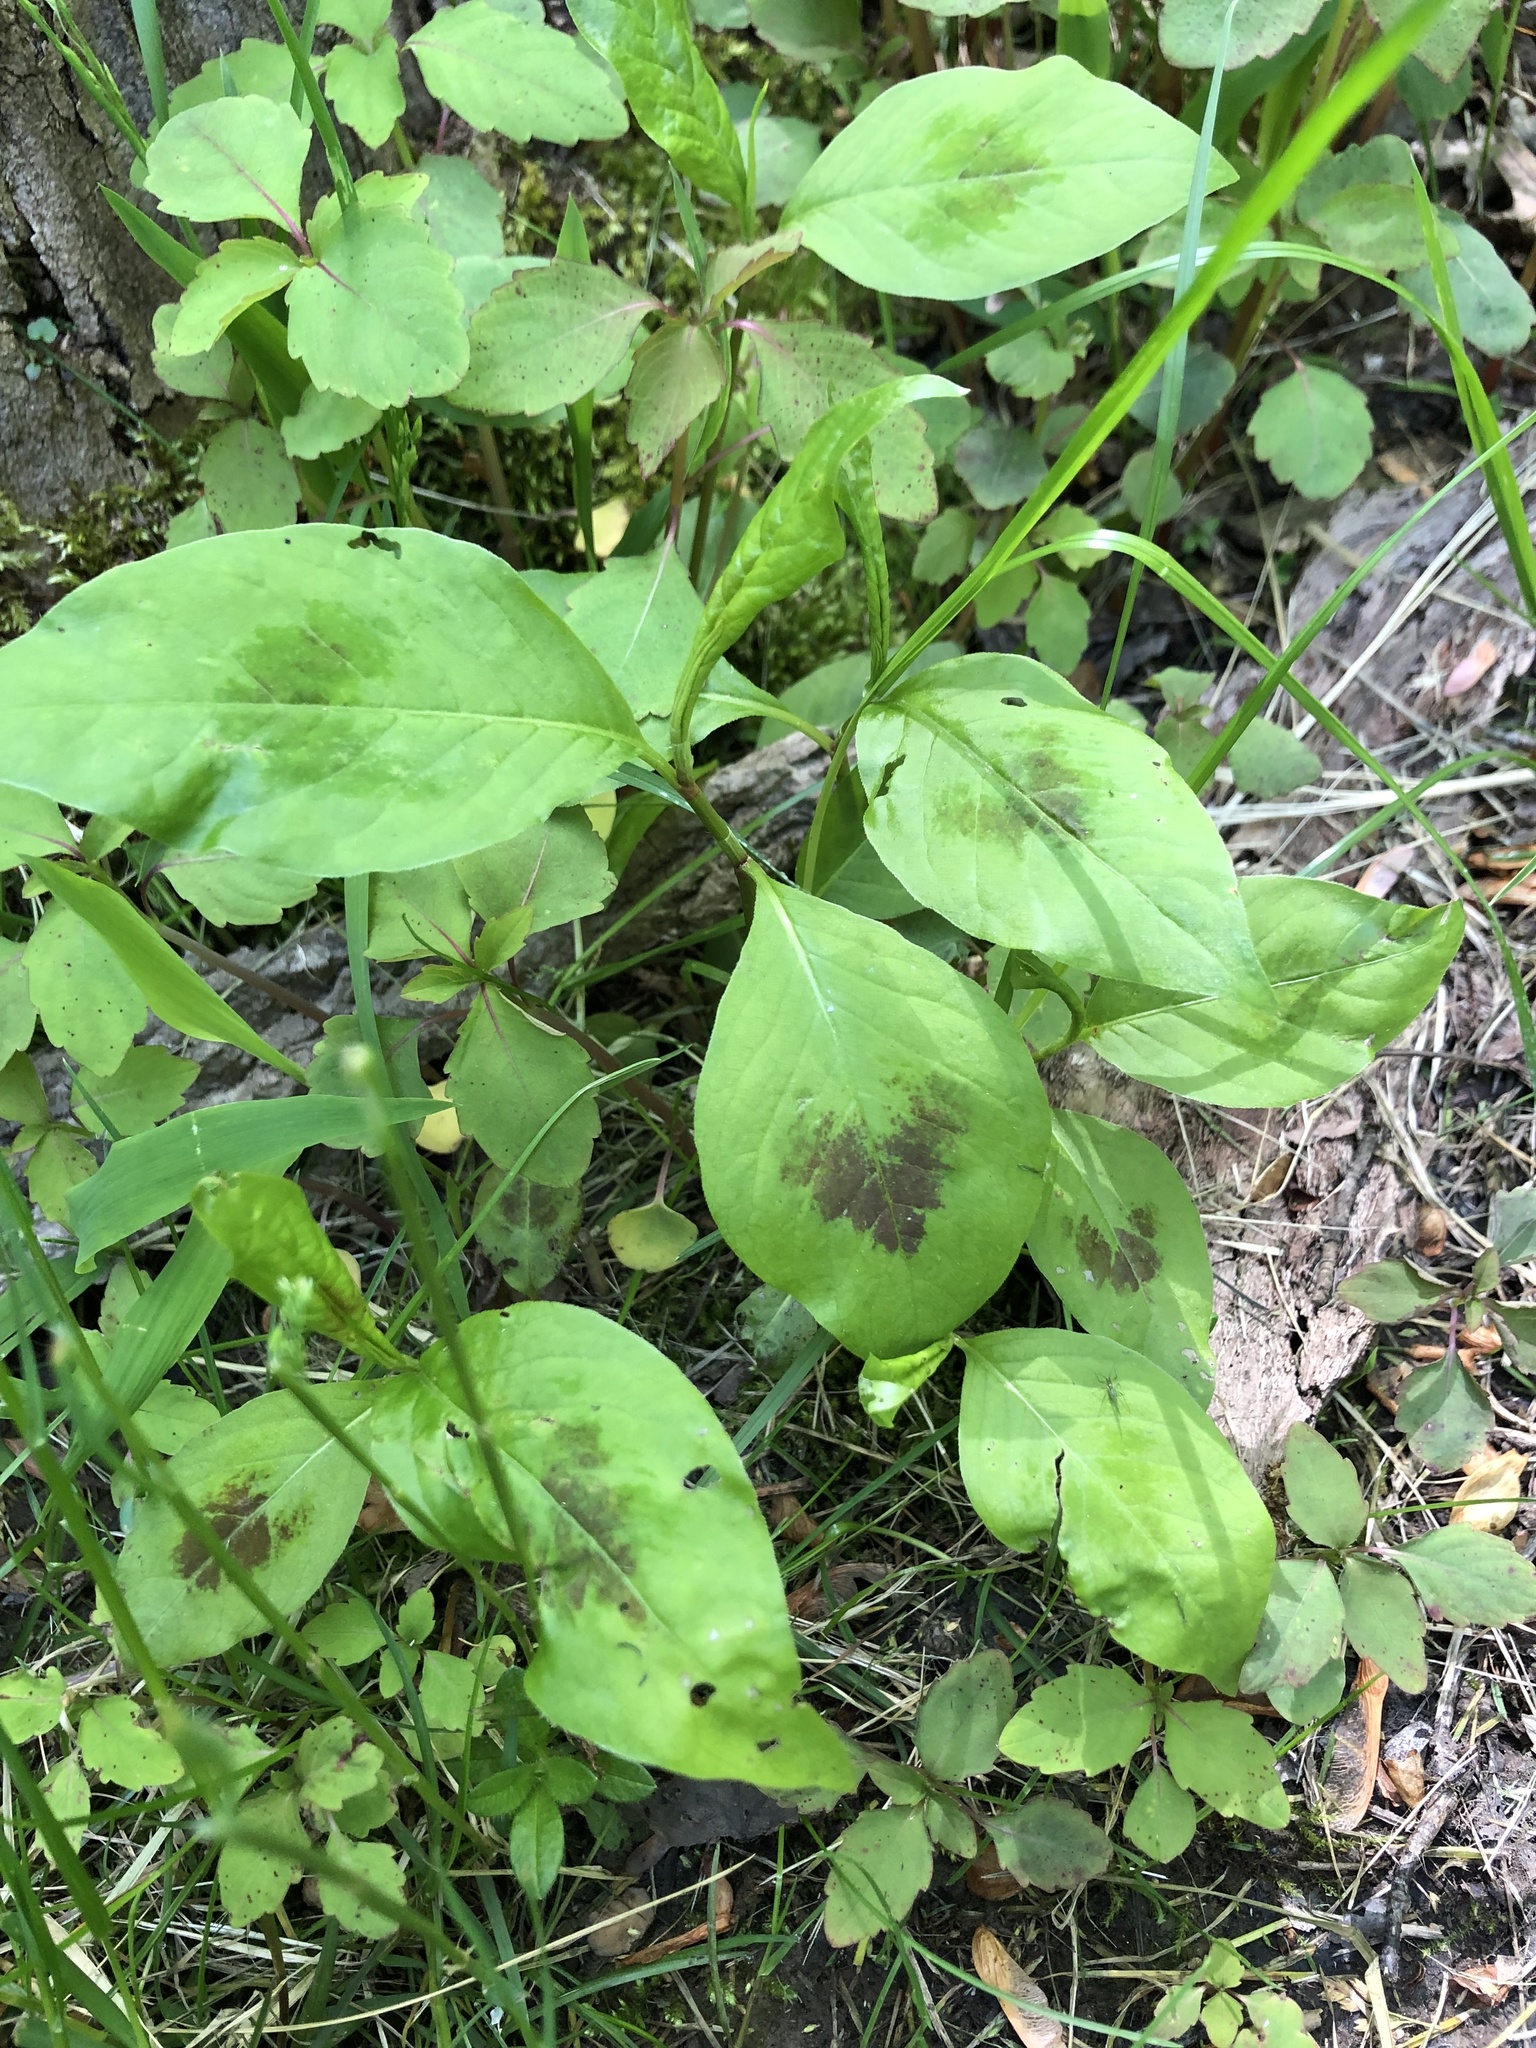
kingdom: Plantae
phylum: Tracheophyta
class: Magnoliopsida
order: Caryophyllales
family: Polygonaceae
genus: Persicaria
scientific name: Persicaria virginiana
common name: Jumpseed
